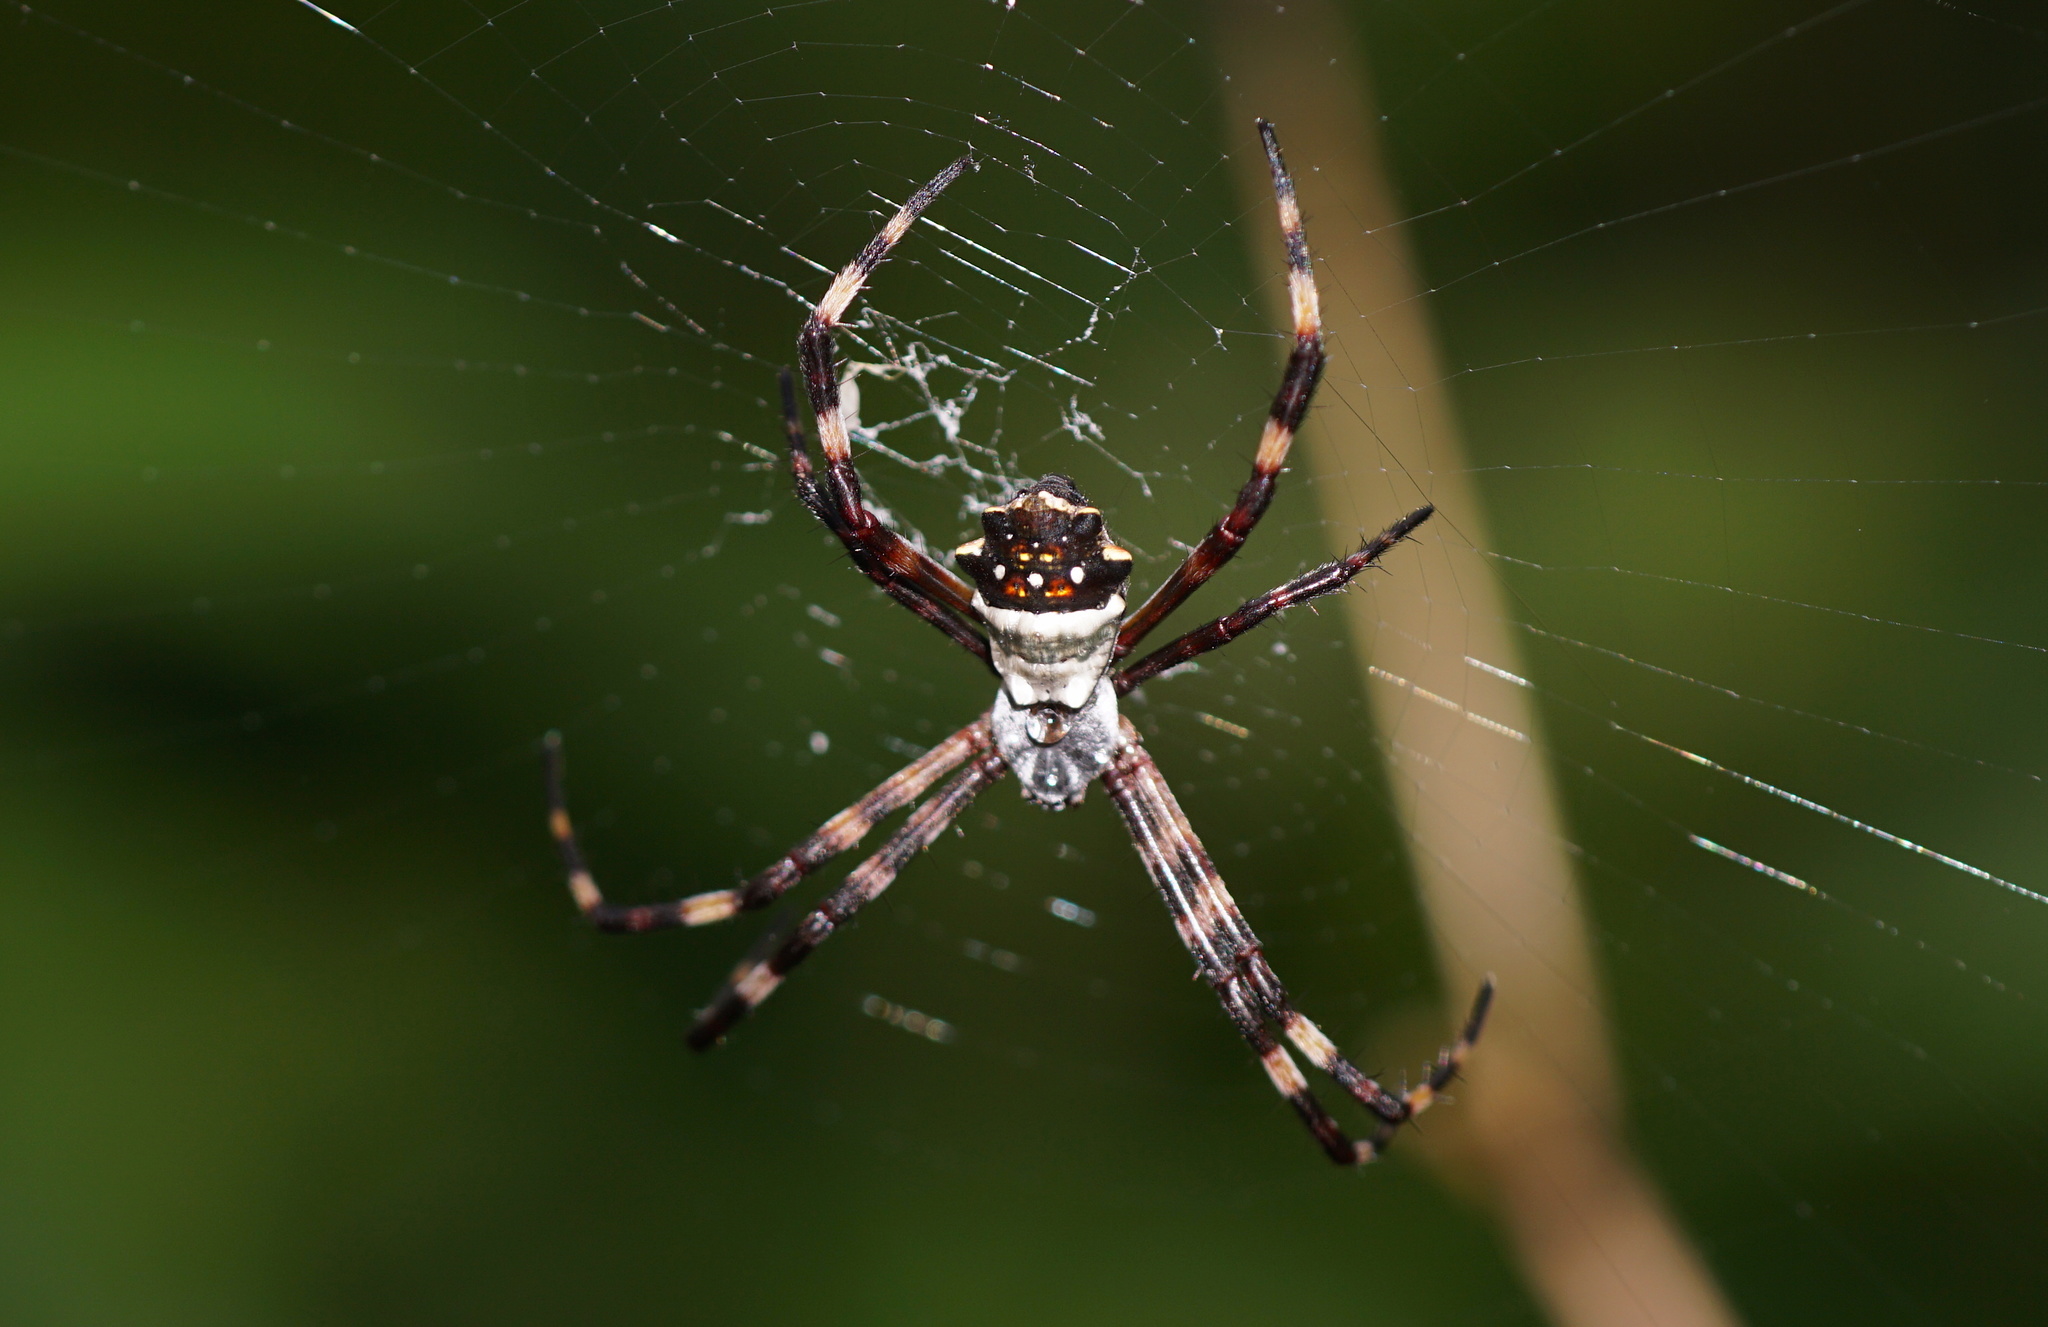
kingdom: Animalia
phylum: Arthropoda
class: Arachnida
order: Araneae
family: Araneidae
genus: Argiope
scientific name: Argiope argentata
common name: Orb weavers
